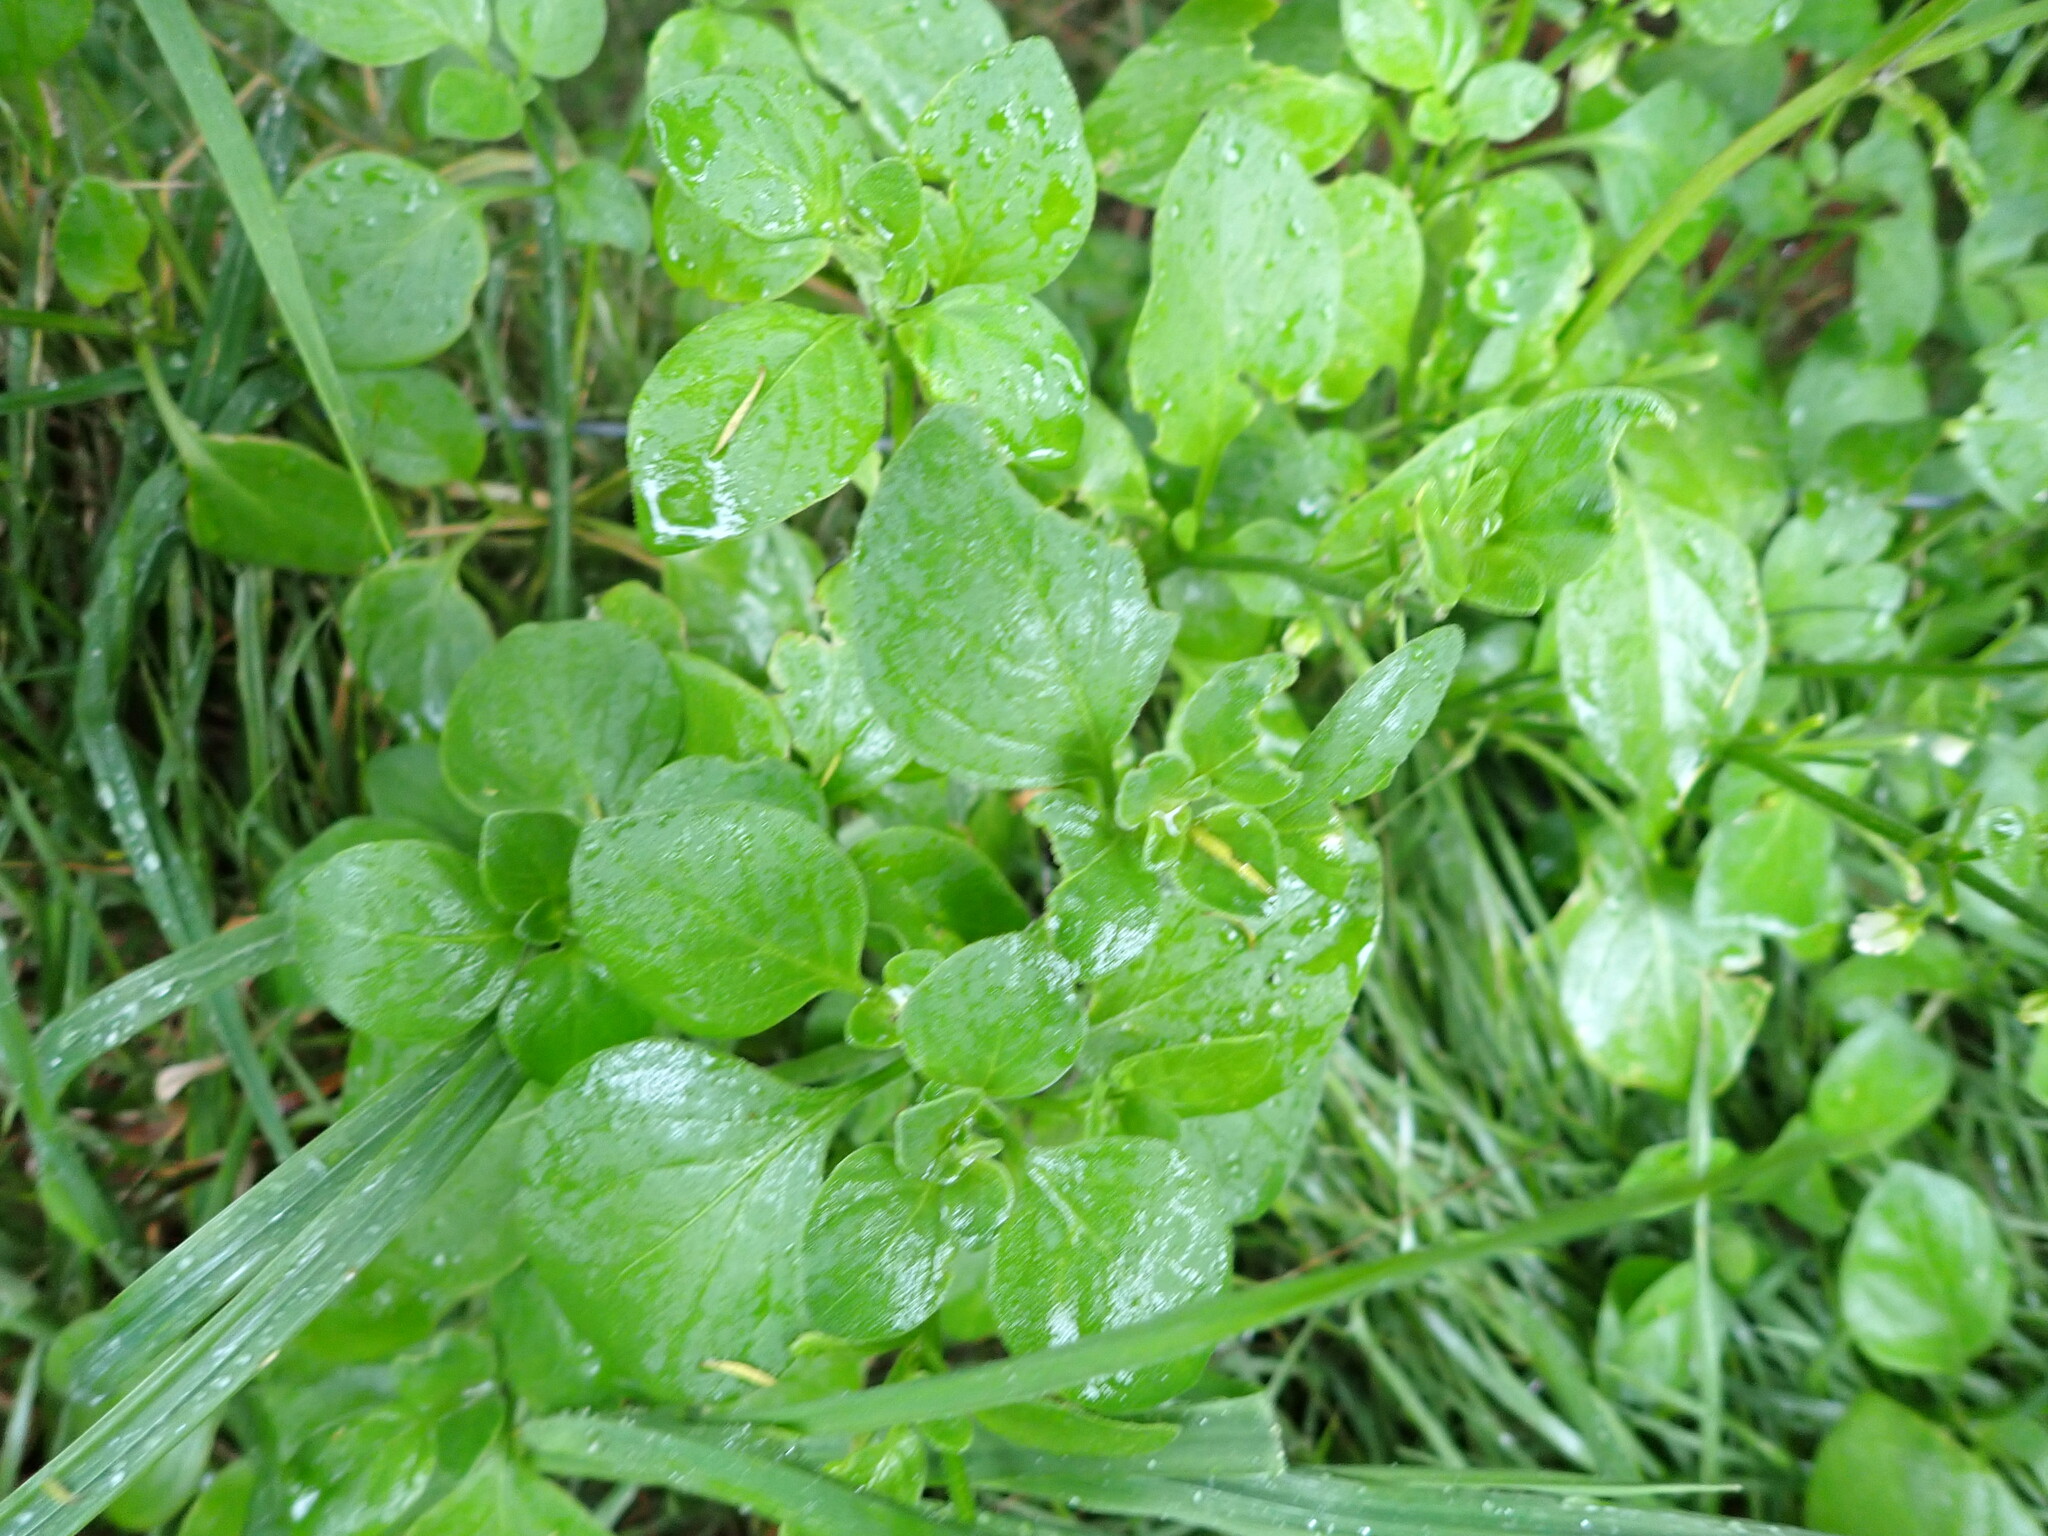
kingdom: Plantae
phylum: Tracheophyta
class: Magnoliopsida
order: Solanales
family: Solanaceae
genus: Salpichroa
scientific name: Salpichroa origanifolia
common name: Lily-of-the-valley-vine
